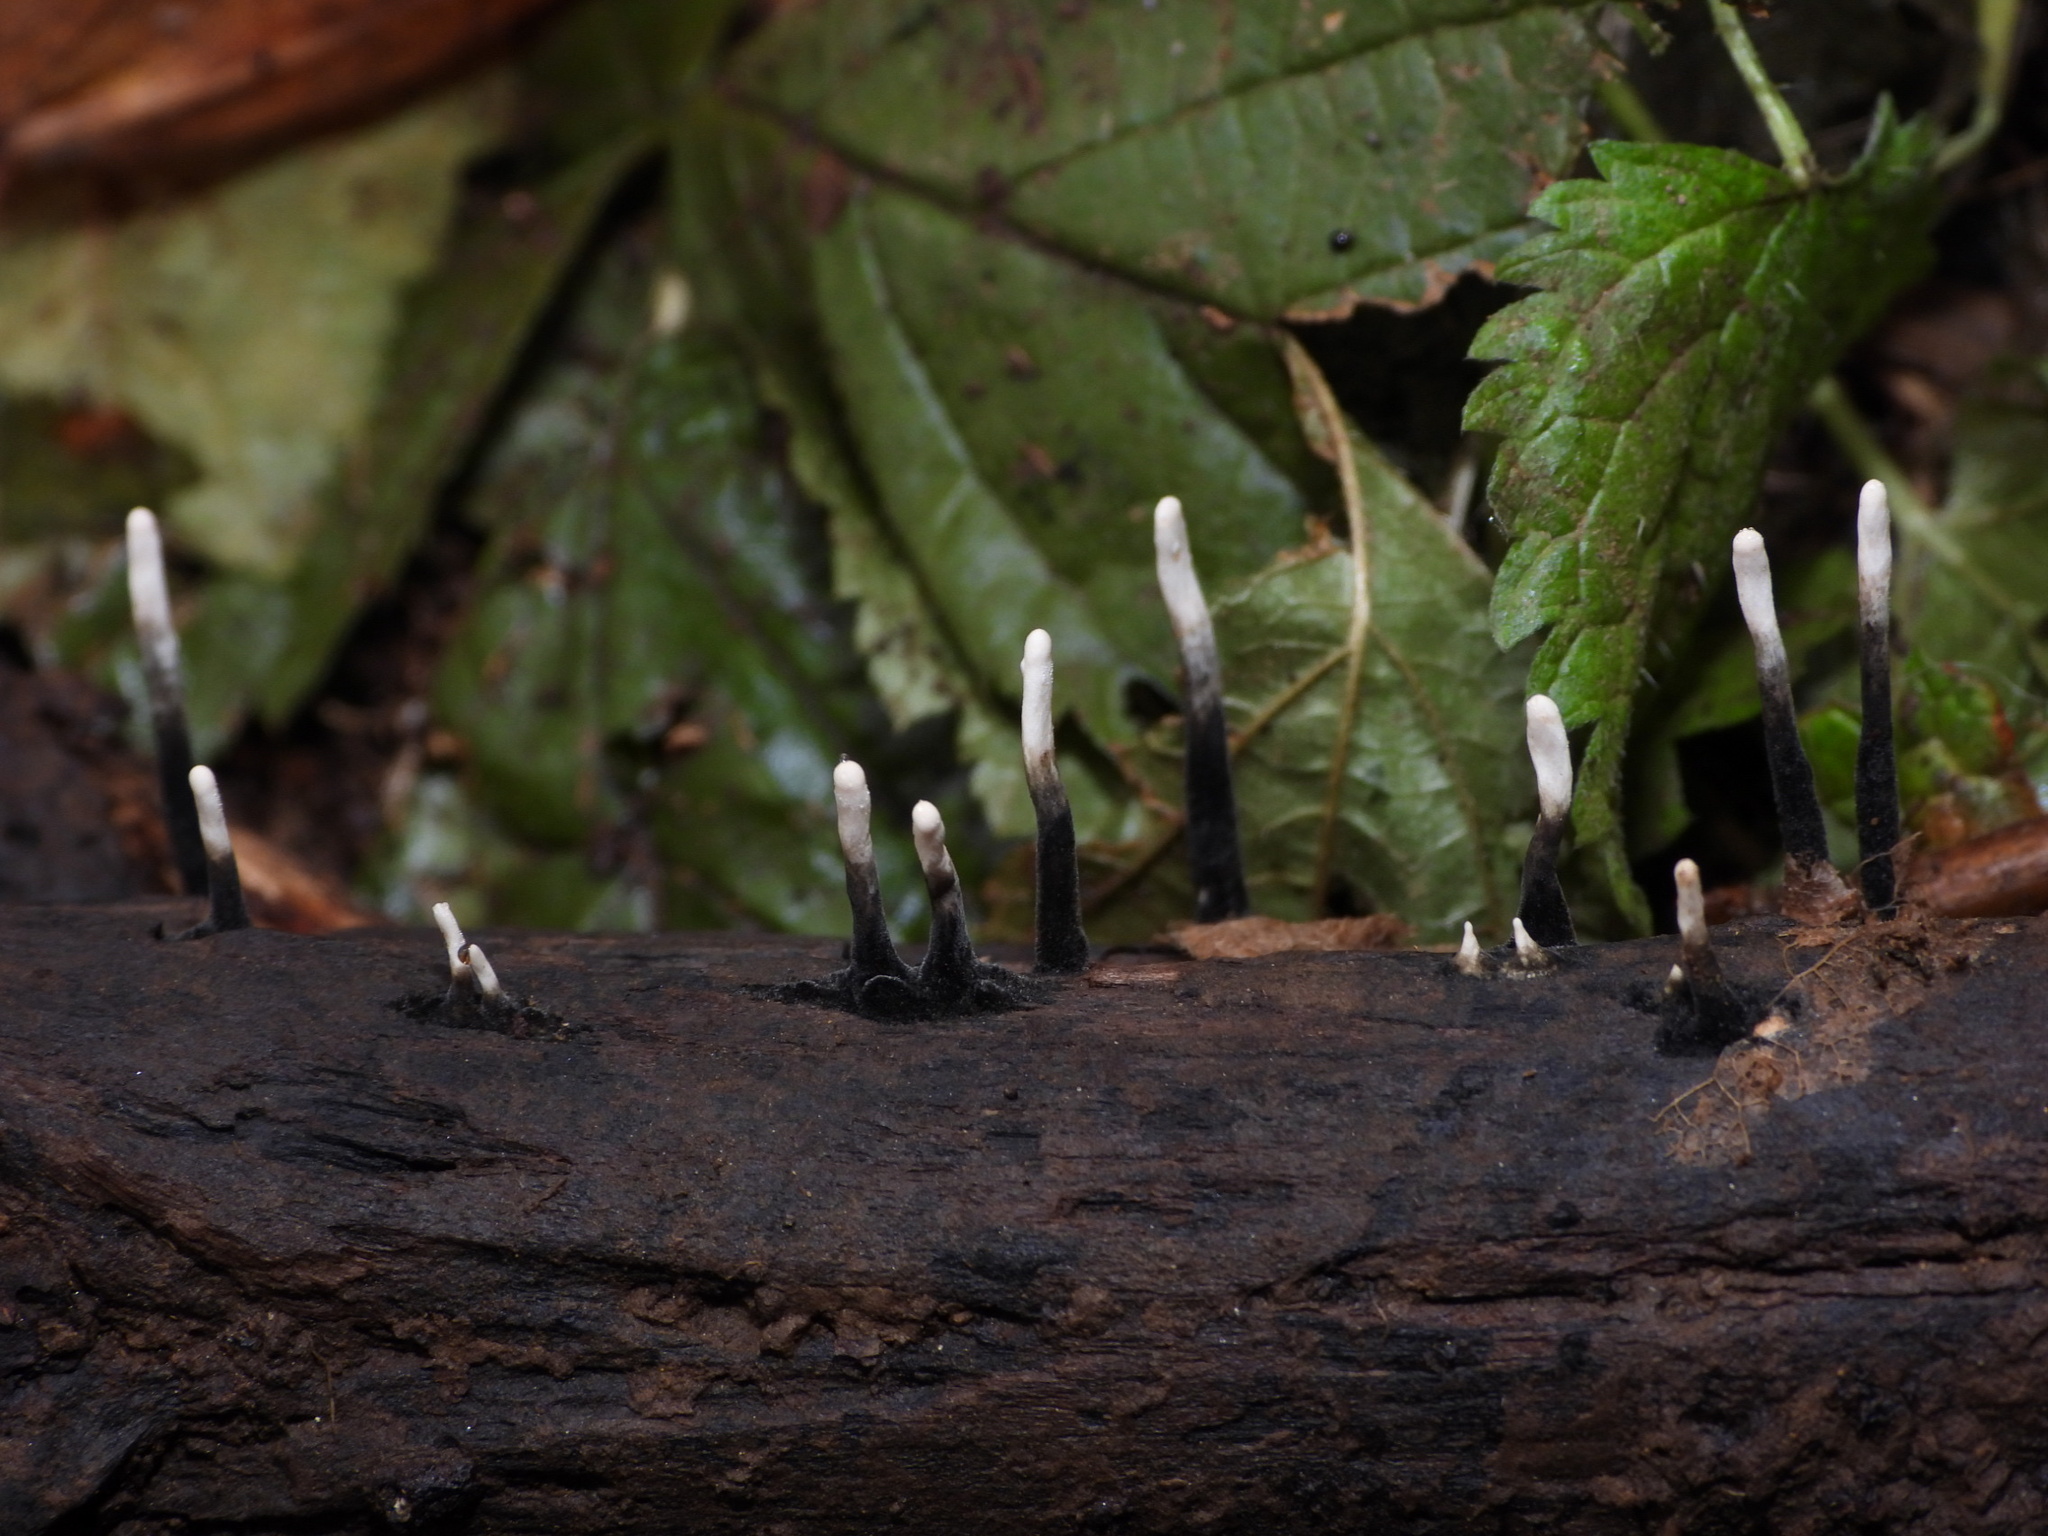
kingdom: Fungi
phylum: Ascomycota
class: Sordariomycetes
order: Xylariales
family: Xylariaceae
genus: Xylaria
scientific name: Xylaria hypoxylon
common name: Candle-snuff fungus
